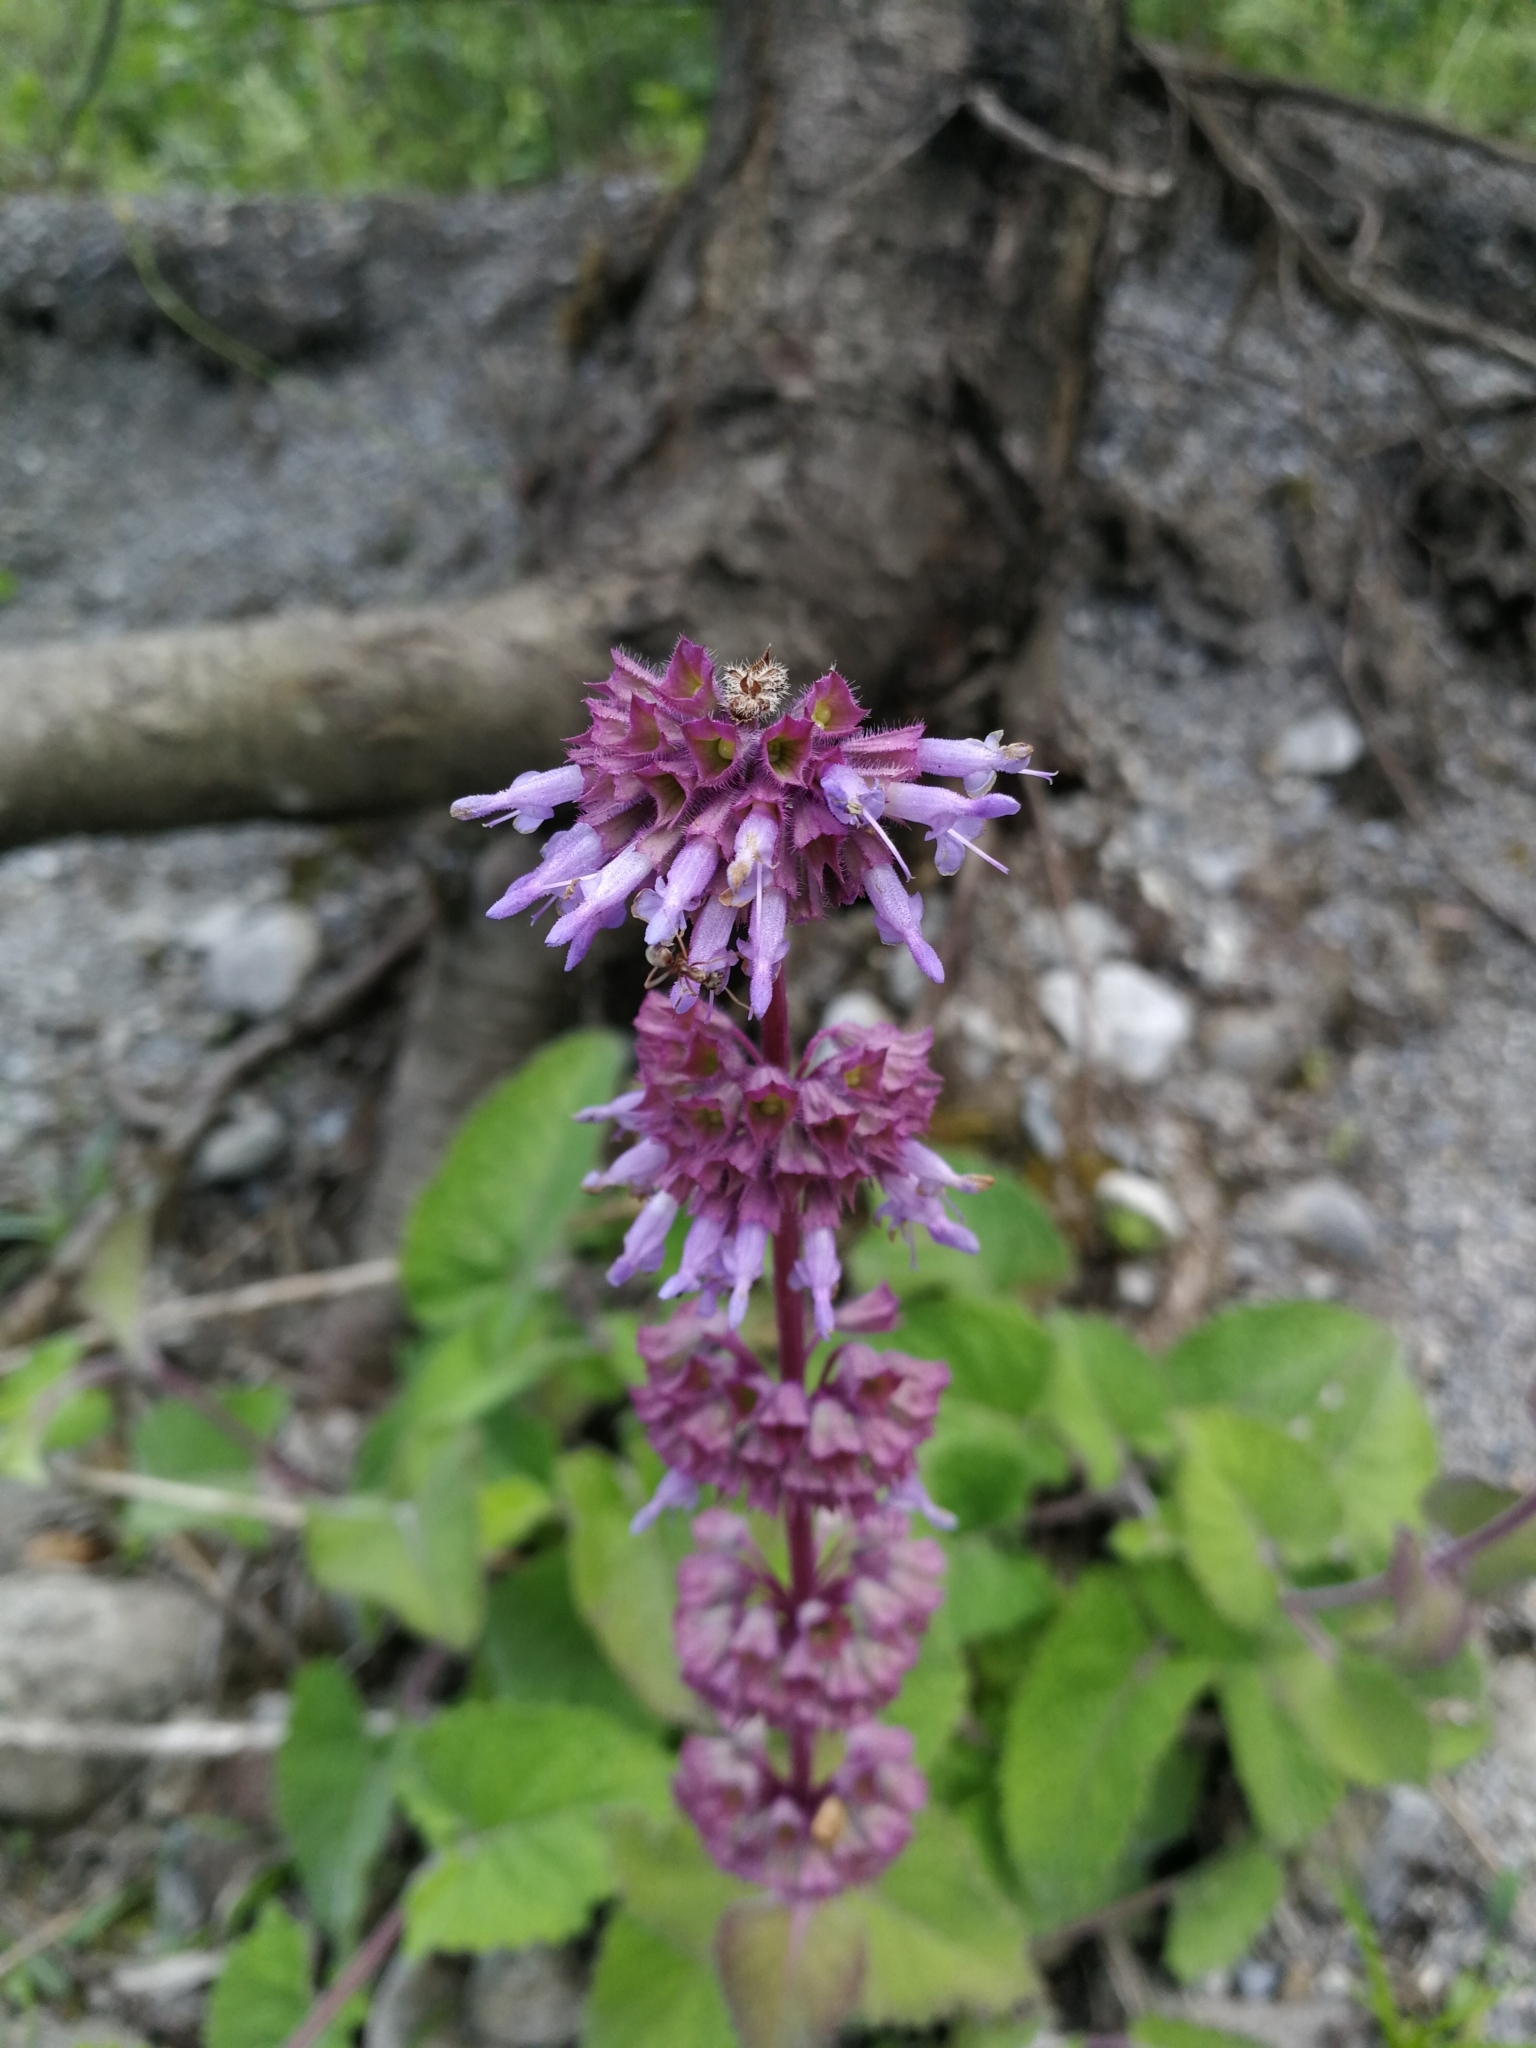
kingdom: Plantae
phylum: Tracheophyta
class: Magnoliopsida
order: Lamiales
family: Lamiaceae
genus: Salvia
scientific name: Salvia verticillata
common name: Whorled clary
